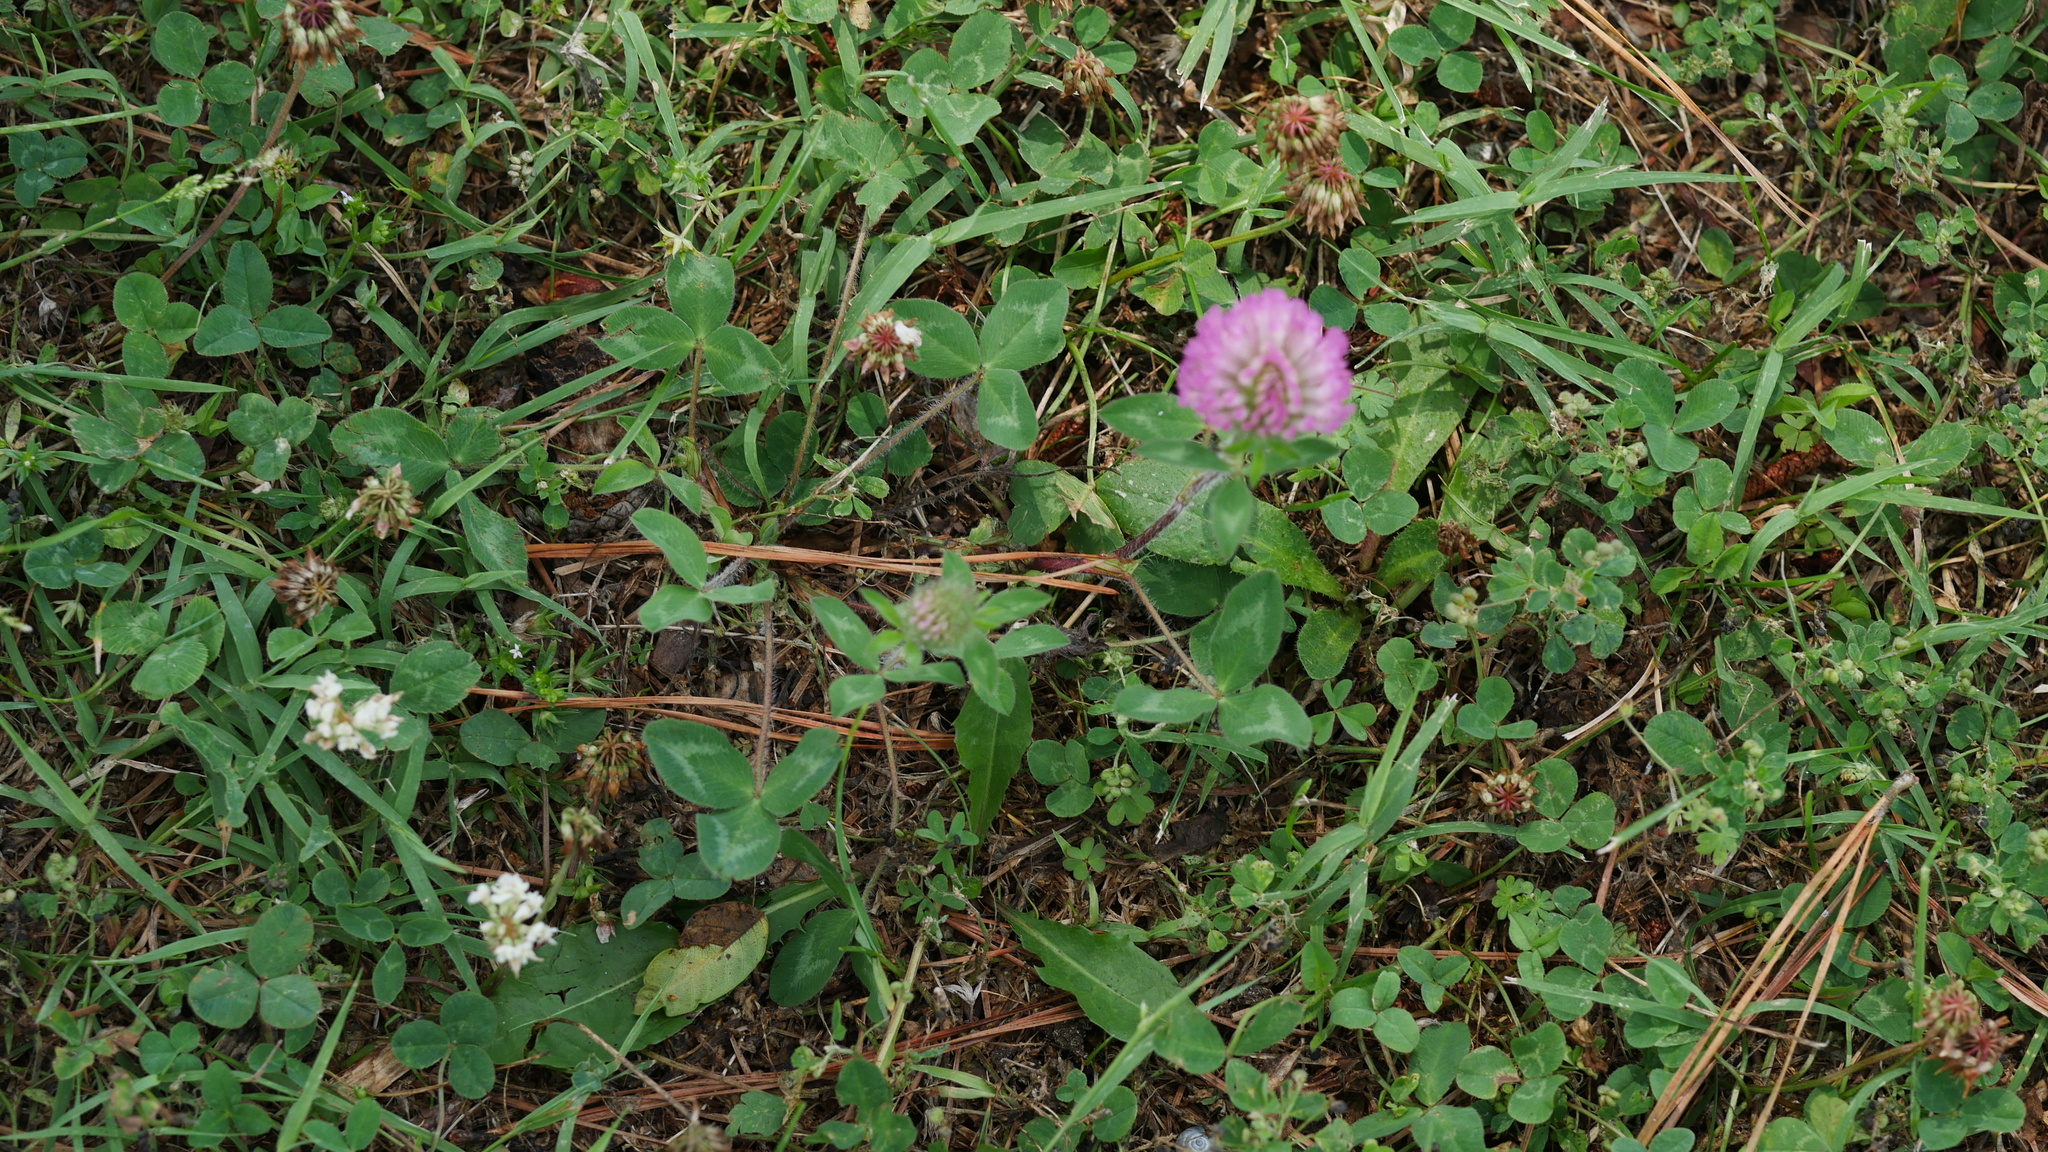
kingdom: Plantae
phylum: Tracheophyta
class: Magnoliopsida
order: Fabales
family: Fabaceae
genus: Trifolium
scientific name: Trifolium pratense
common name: Red clover
